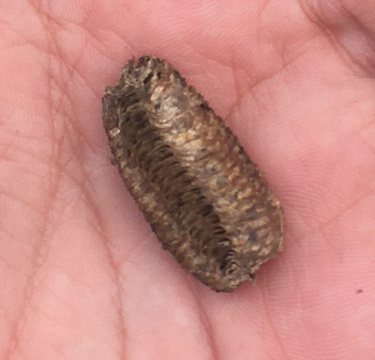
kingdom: Animalia
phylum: Arthropoda
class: Insecta
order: Mantodea
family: Mantidae
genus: Stagmomantis
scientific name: Stagmomantis carolina
